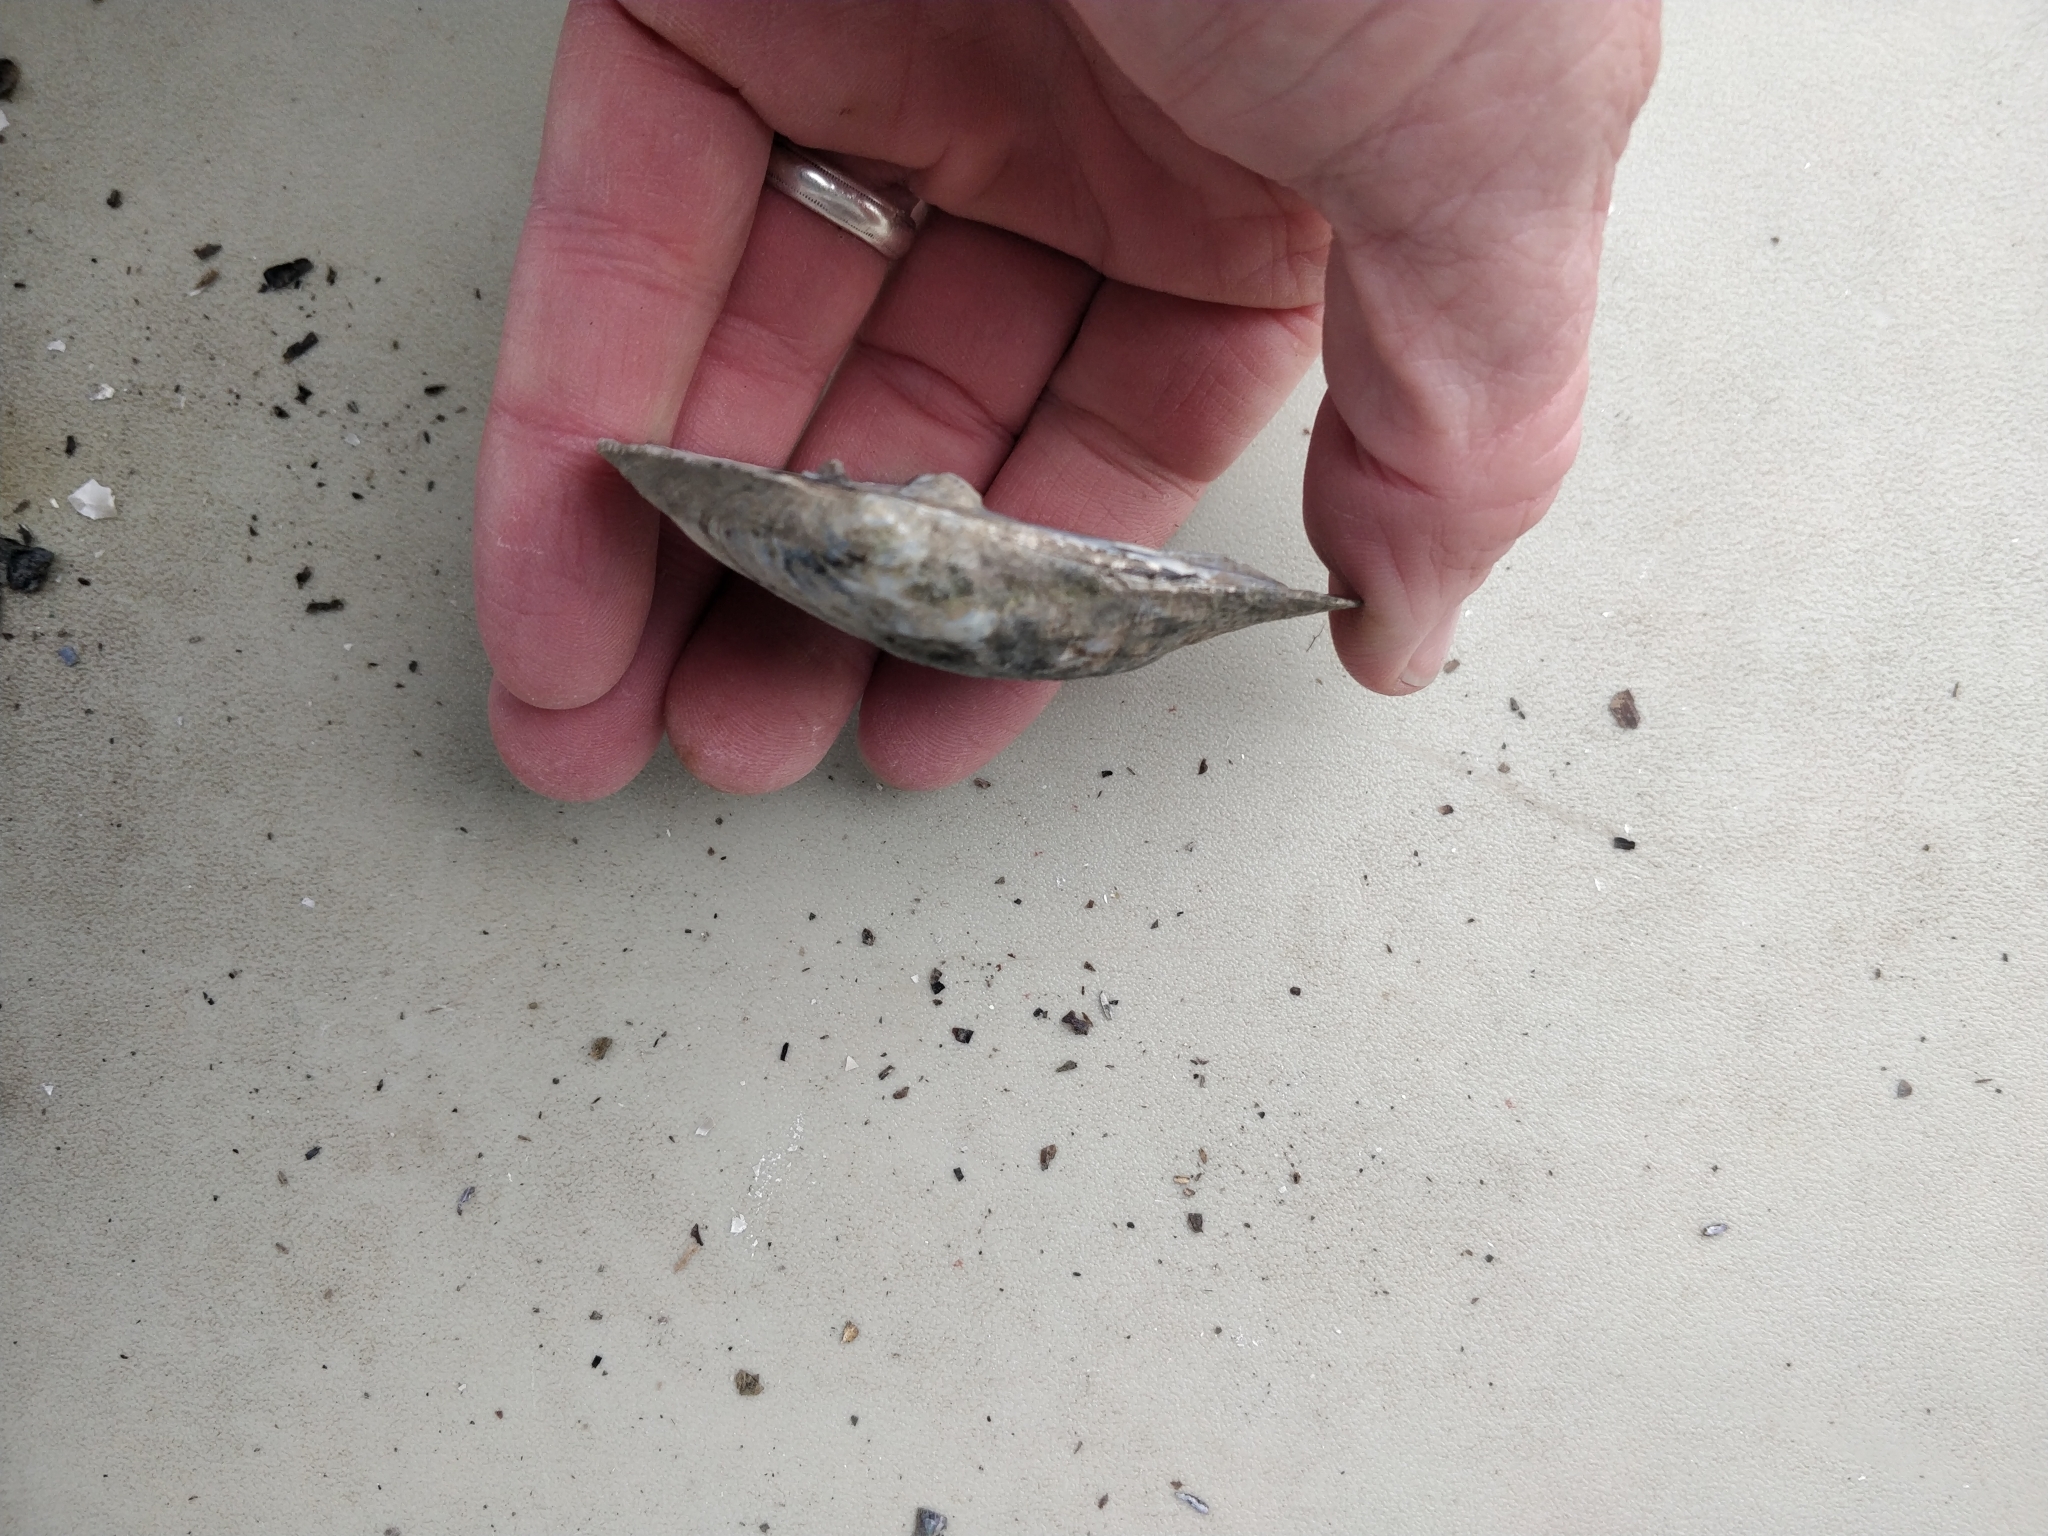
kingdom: Animalia
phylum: Mollusca
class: Bivalvia
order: Unionida
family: Unionidae
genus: Amblema
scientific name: Amblema plicata
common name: Threeridge
